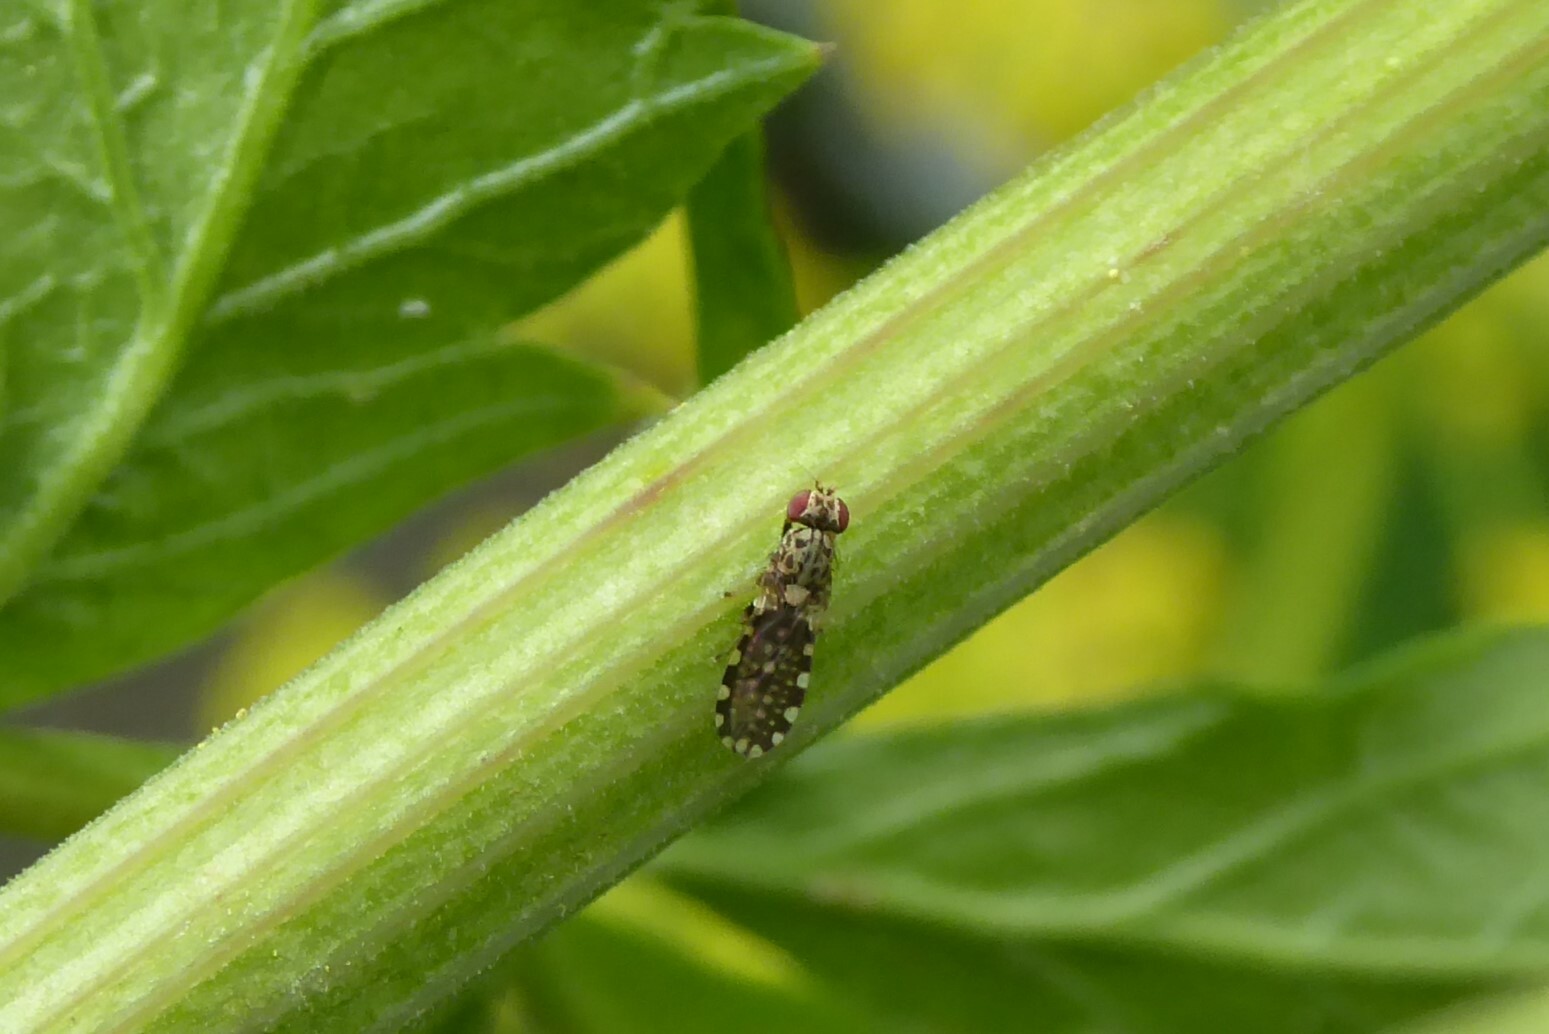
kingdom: Animalia
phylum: Arthropoda
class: Insecta
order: Diptera
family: Heleomyzidae
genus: Xeneura
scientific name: Xeneura picata
